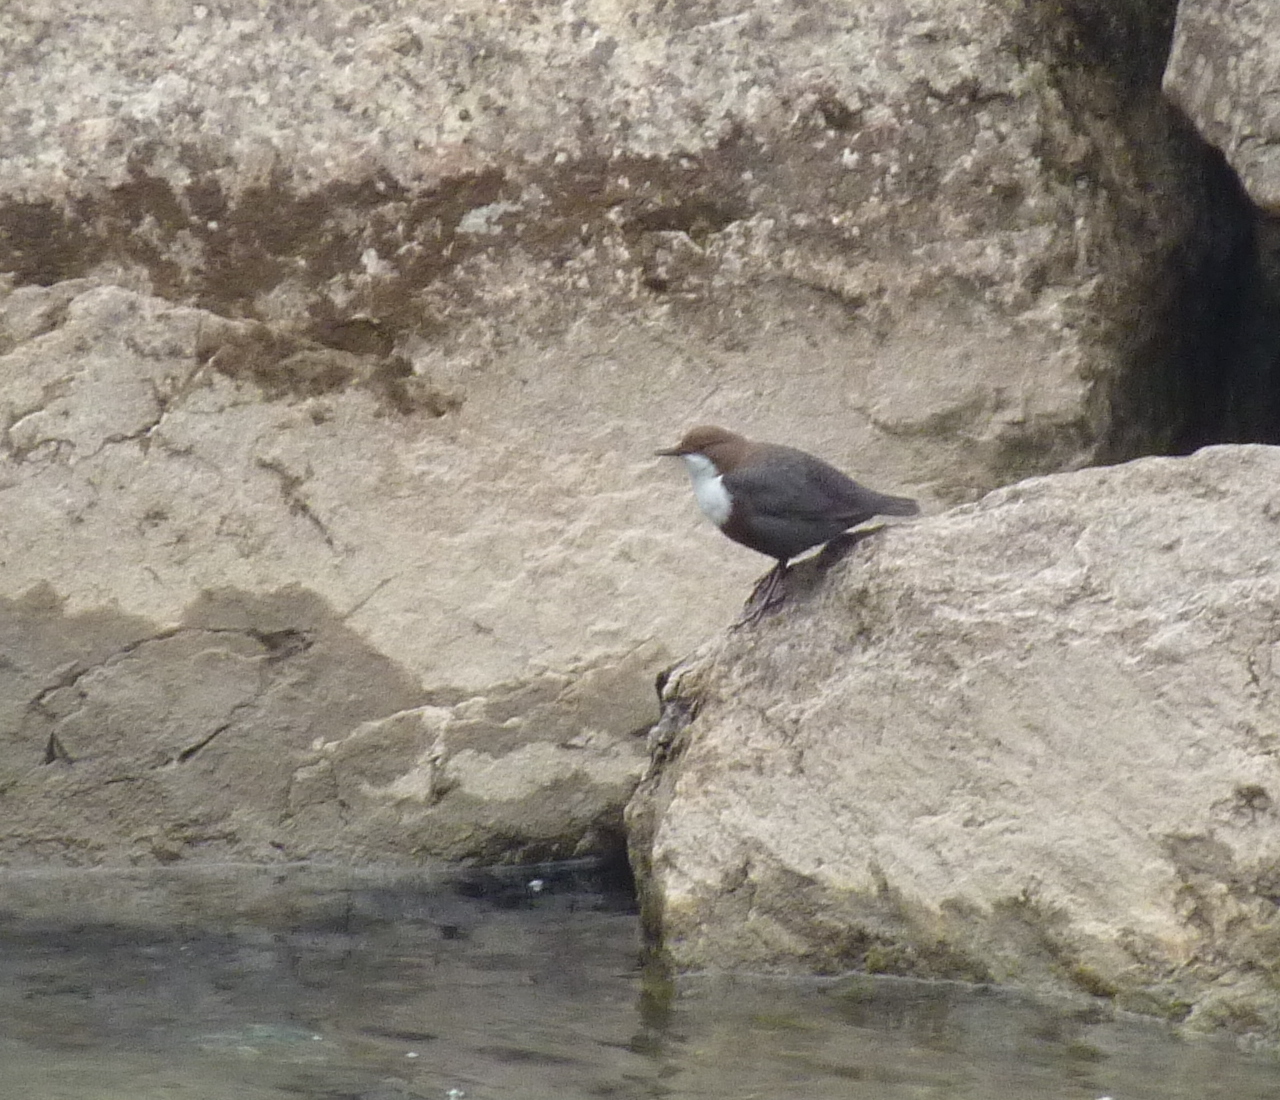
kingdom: Animalia
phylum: Chordata
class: Aves
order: Passeriformes
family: Cinclidae
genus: Cinclus
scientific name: Cinclus cinclus
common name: White-throated dipper
